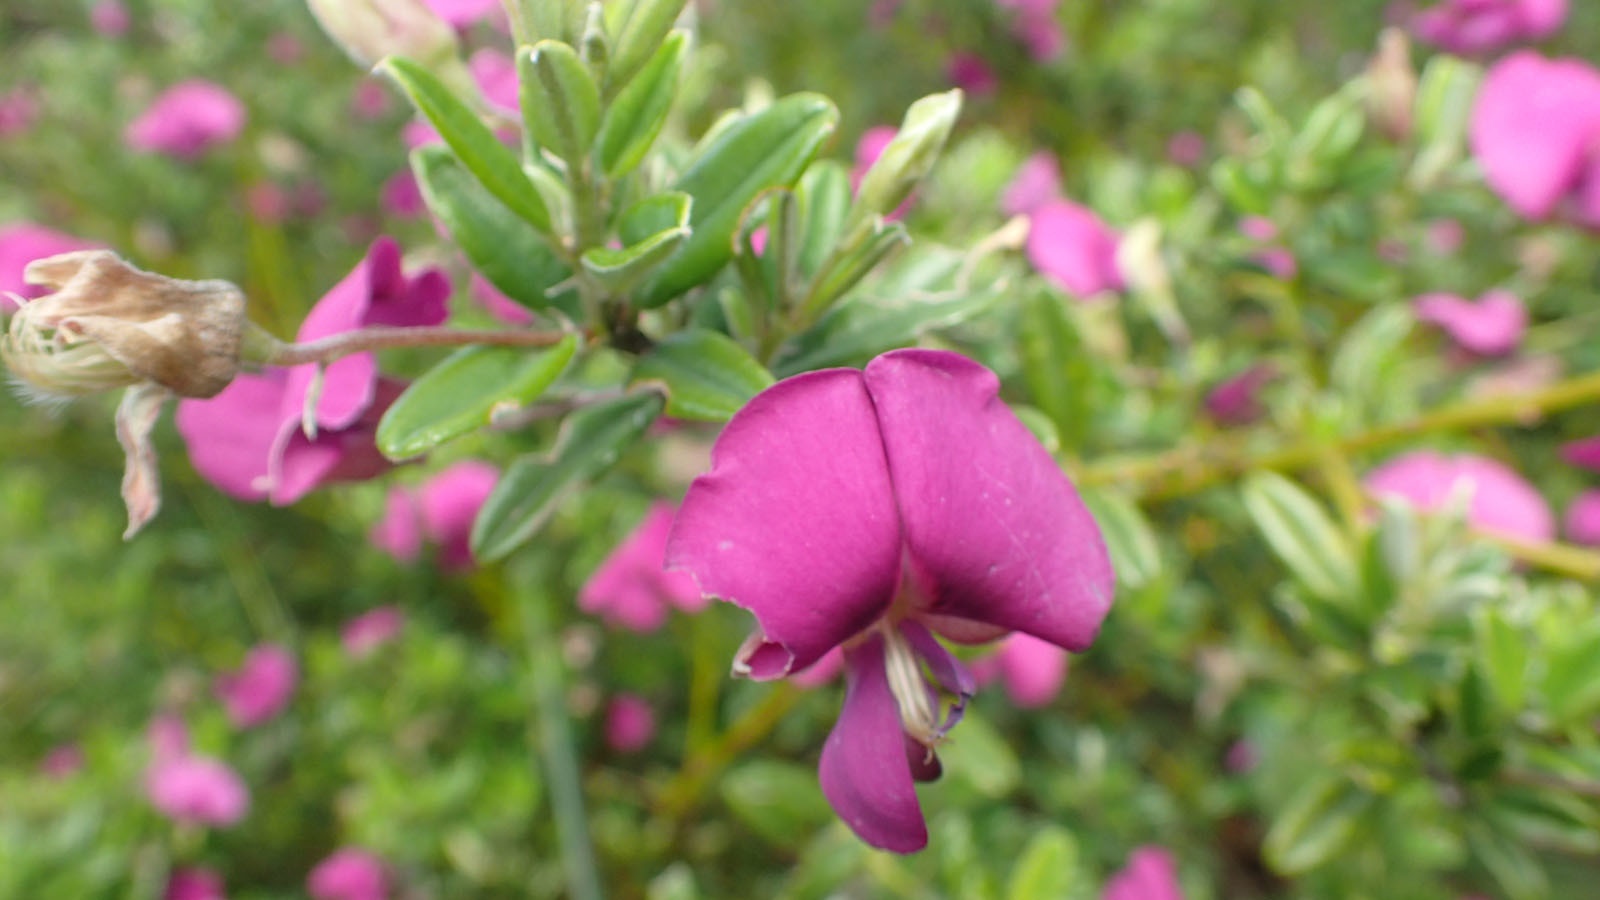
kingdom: Plantae
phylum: Tracheophyta
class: Magnoliopsida
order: Fabales
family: Fabaceae
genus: Podalyria
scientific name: Podalyria buxifolia
